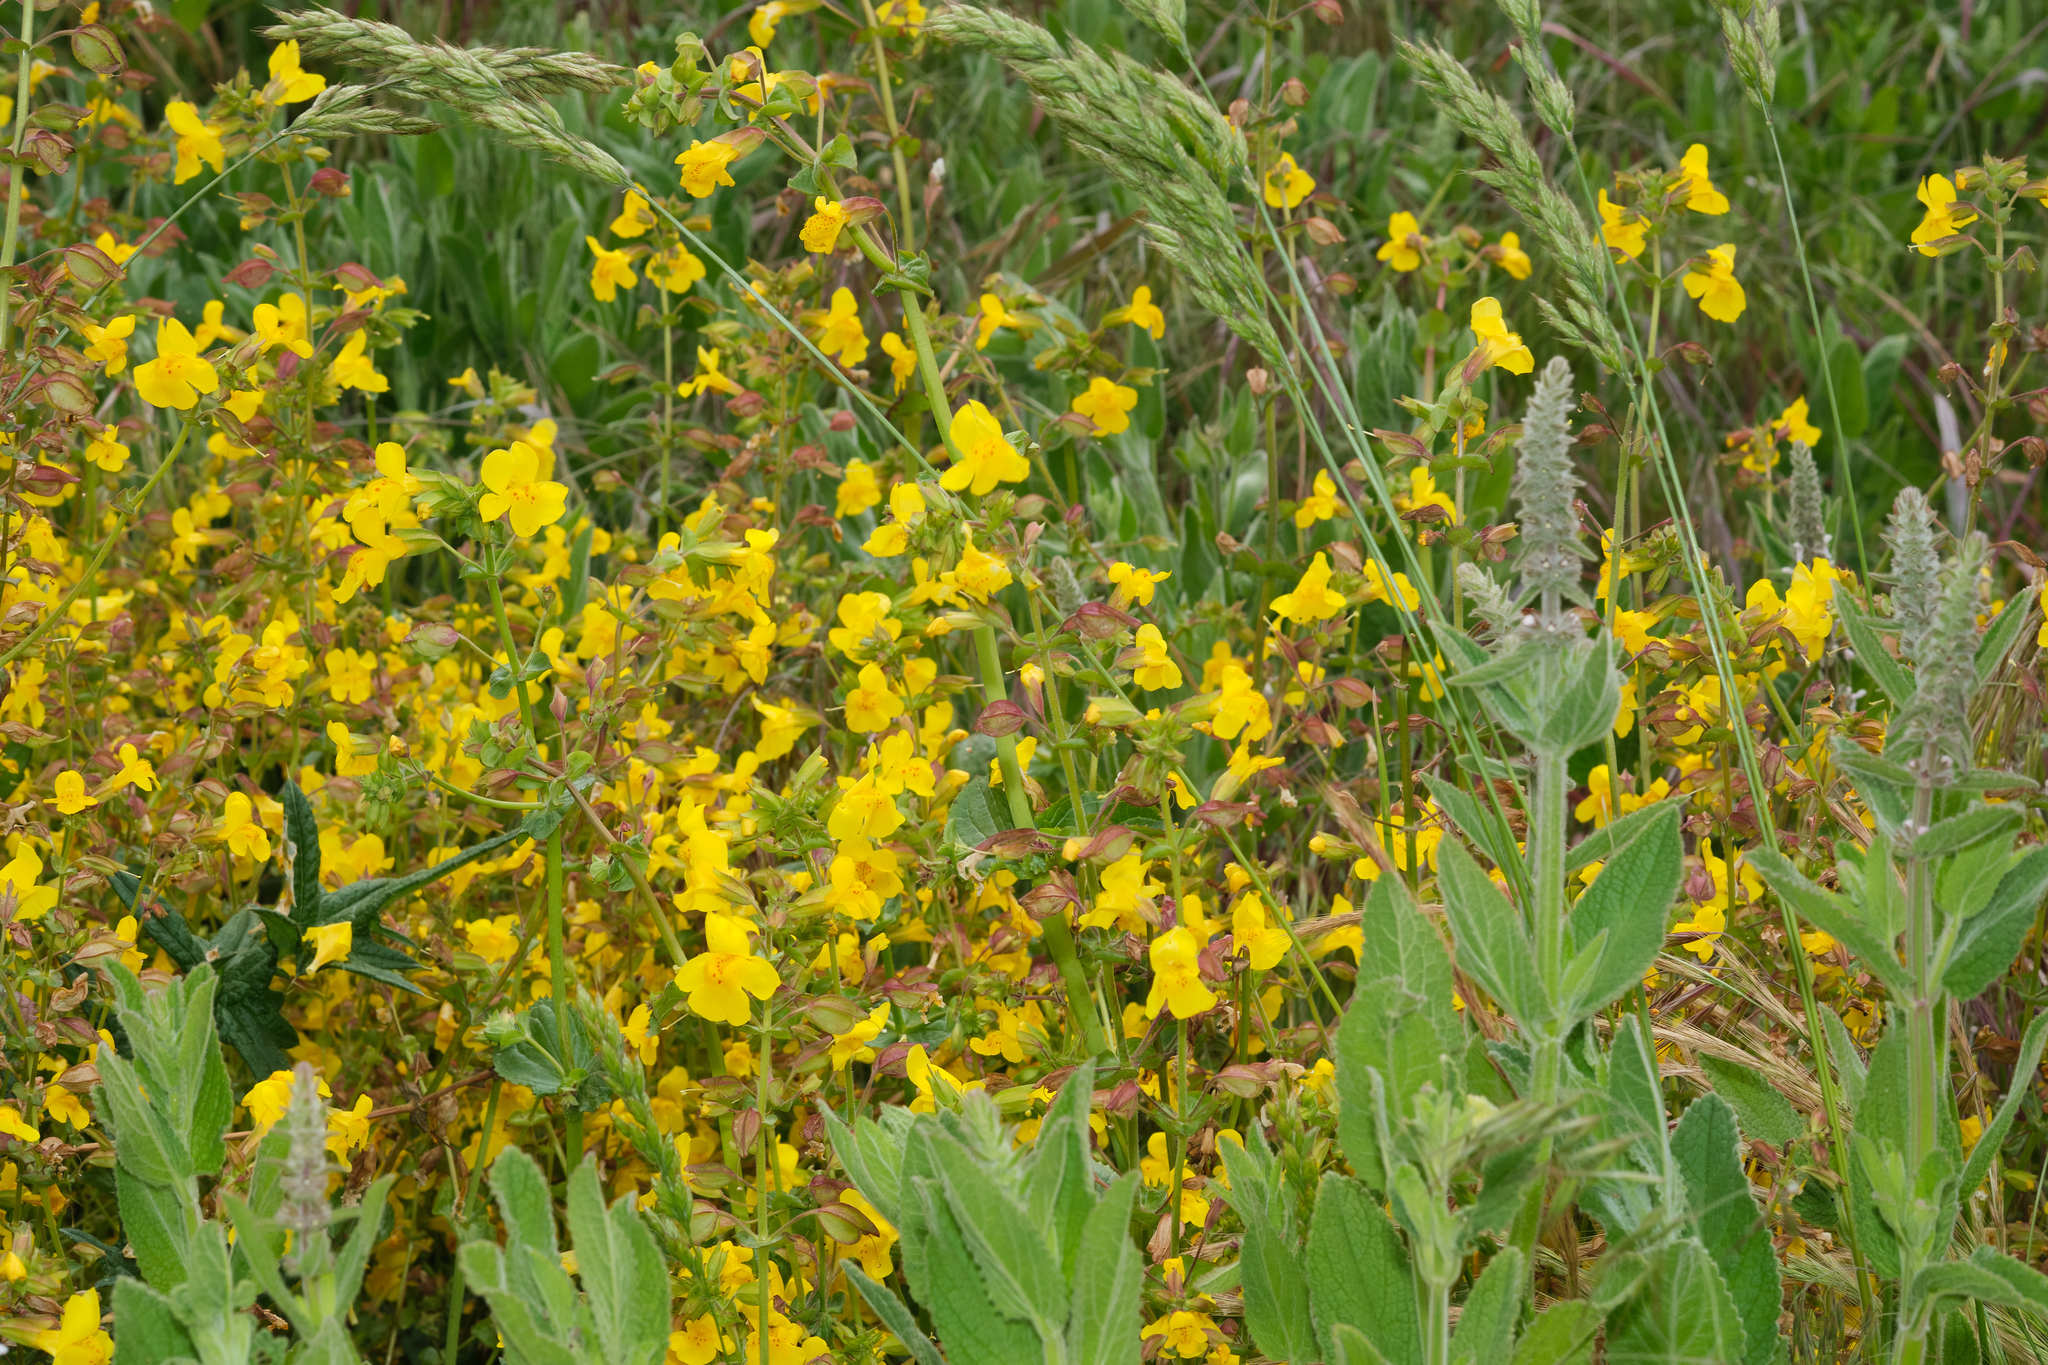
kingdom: Plantae
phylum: Tracheophyta
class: Magnoliopsida
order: Lamiales
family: Phrymaceae
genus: Erythranthe
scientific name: Erythranthe guttata
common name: Monkeyflower
